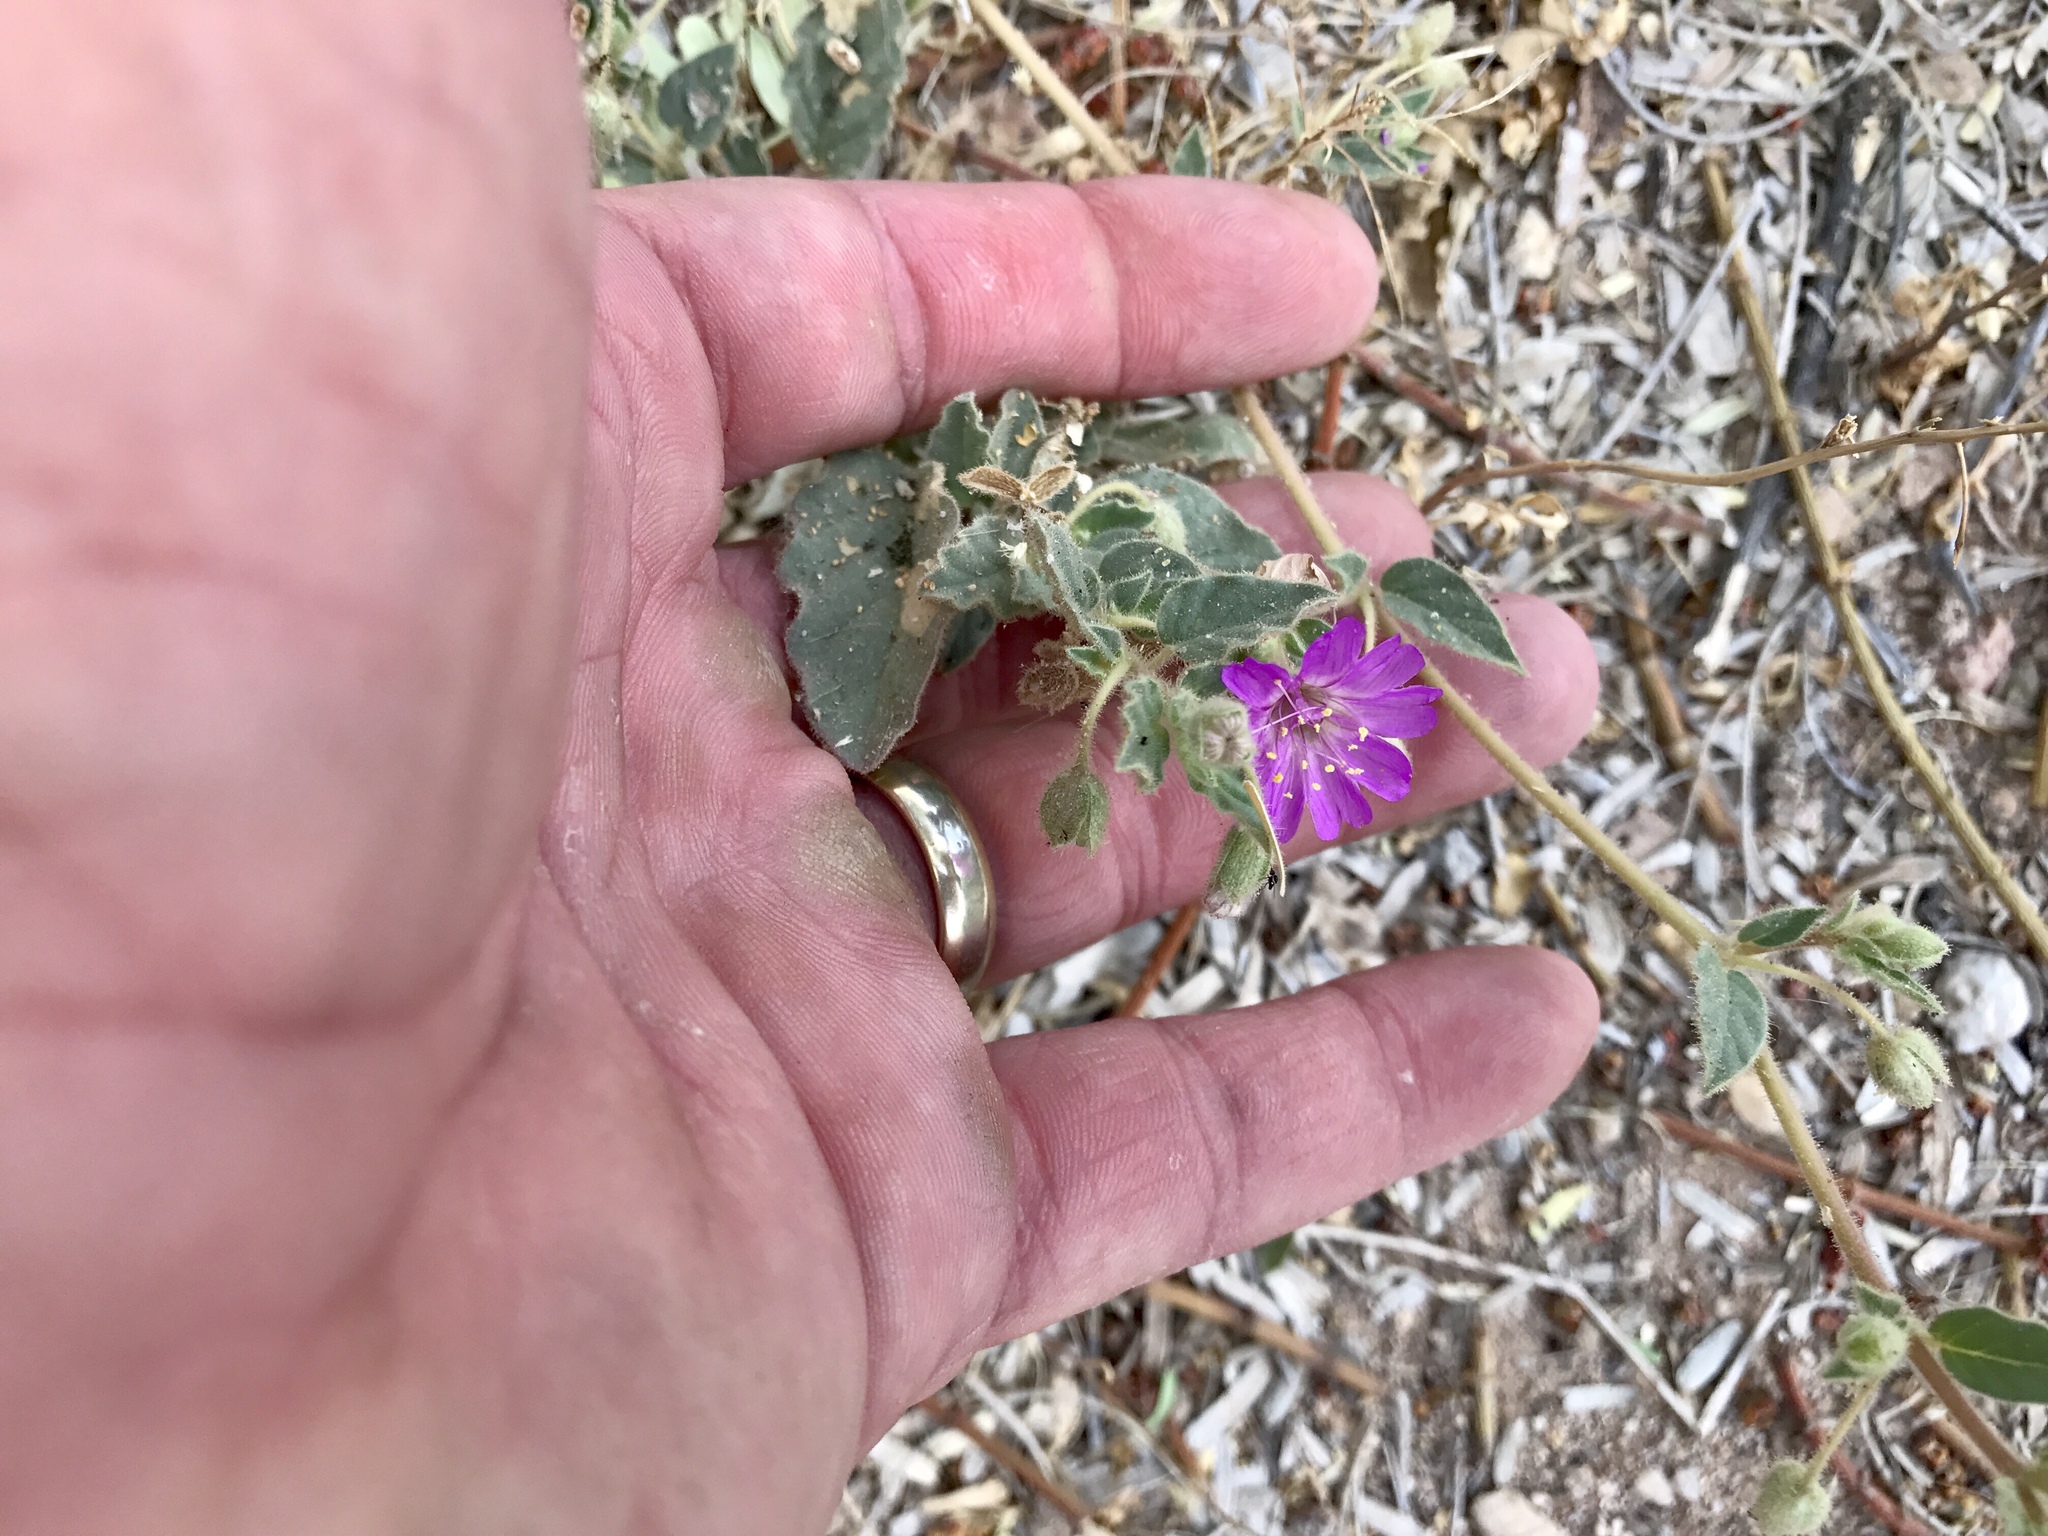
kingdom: Plantae
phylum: Tracheophyta
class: Magnoliopsida
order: Caryophyllales
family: Nyctaginaceae
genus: Allionia
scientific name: Allionia incarnata
